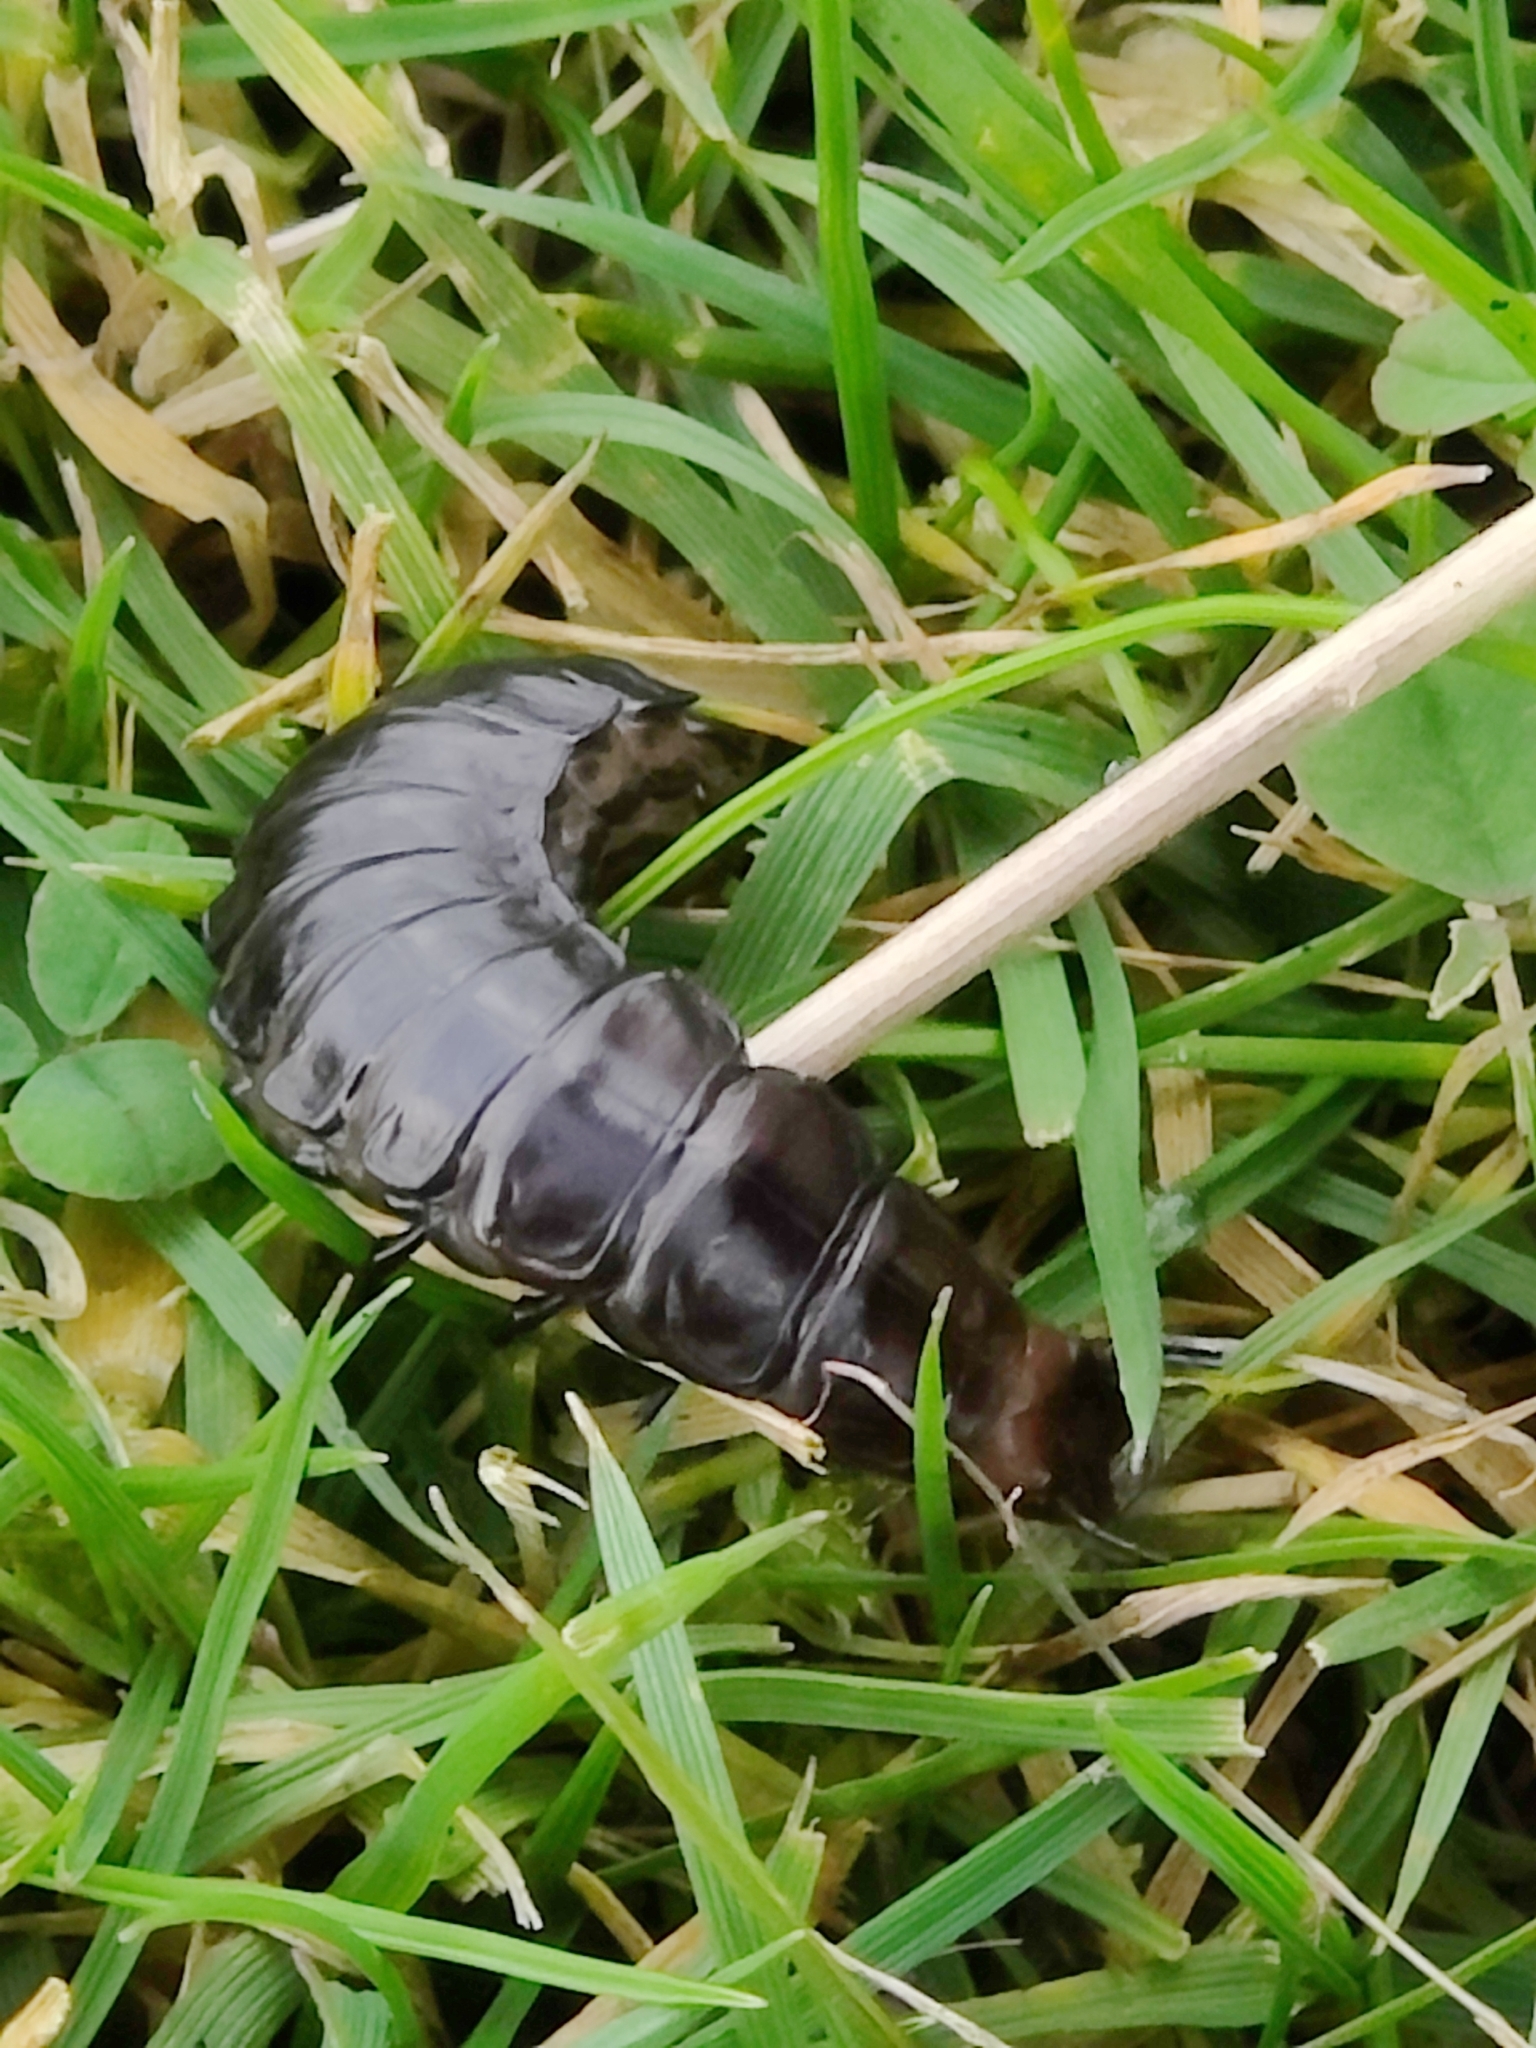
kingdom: Animalia
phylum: Arthropoda
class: Insecta
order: Coleoptera
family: Carabidae
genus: Carabus
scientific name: Carabus violaceus
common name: Violet ground beetle
